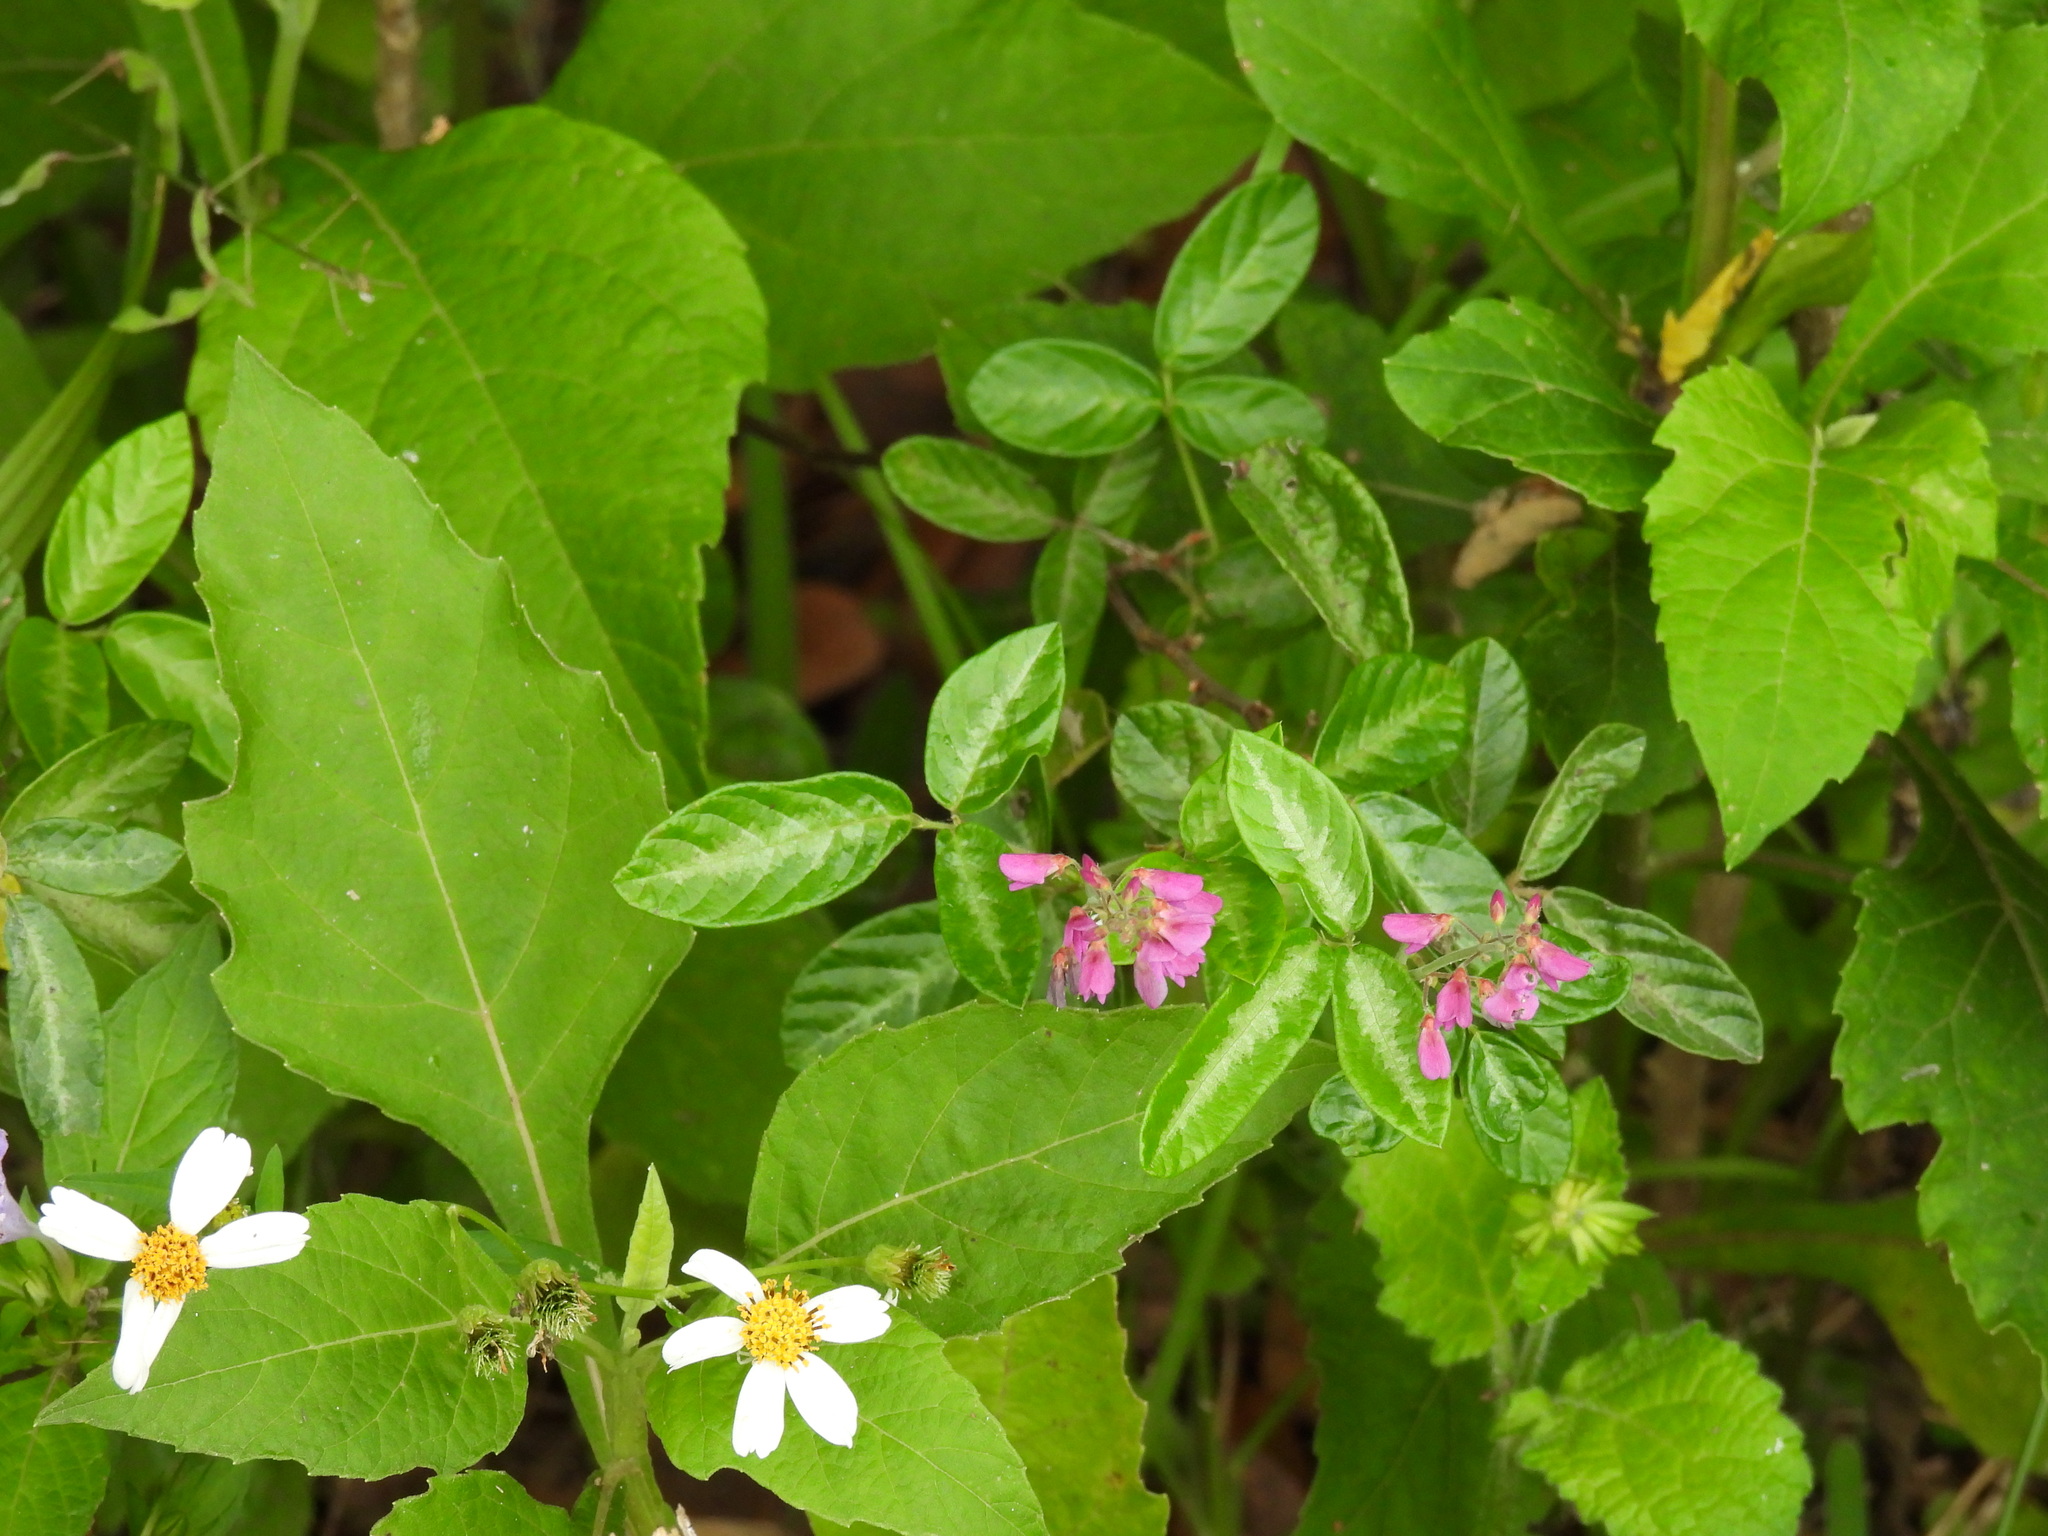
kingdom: Plantae
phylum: Tracheophyta
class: Magnoliopsida
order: Fabales
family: Fabaceae
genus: Desmodium
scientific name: Desmodium incanum
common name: Tickclover
